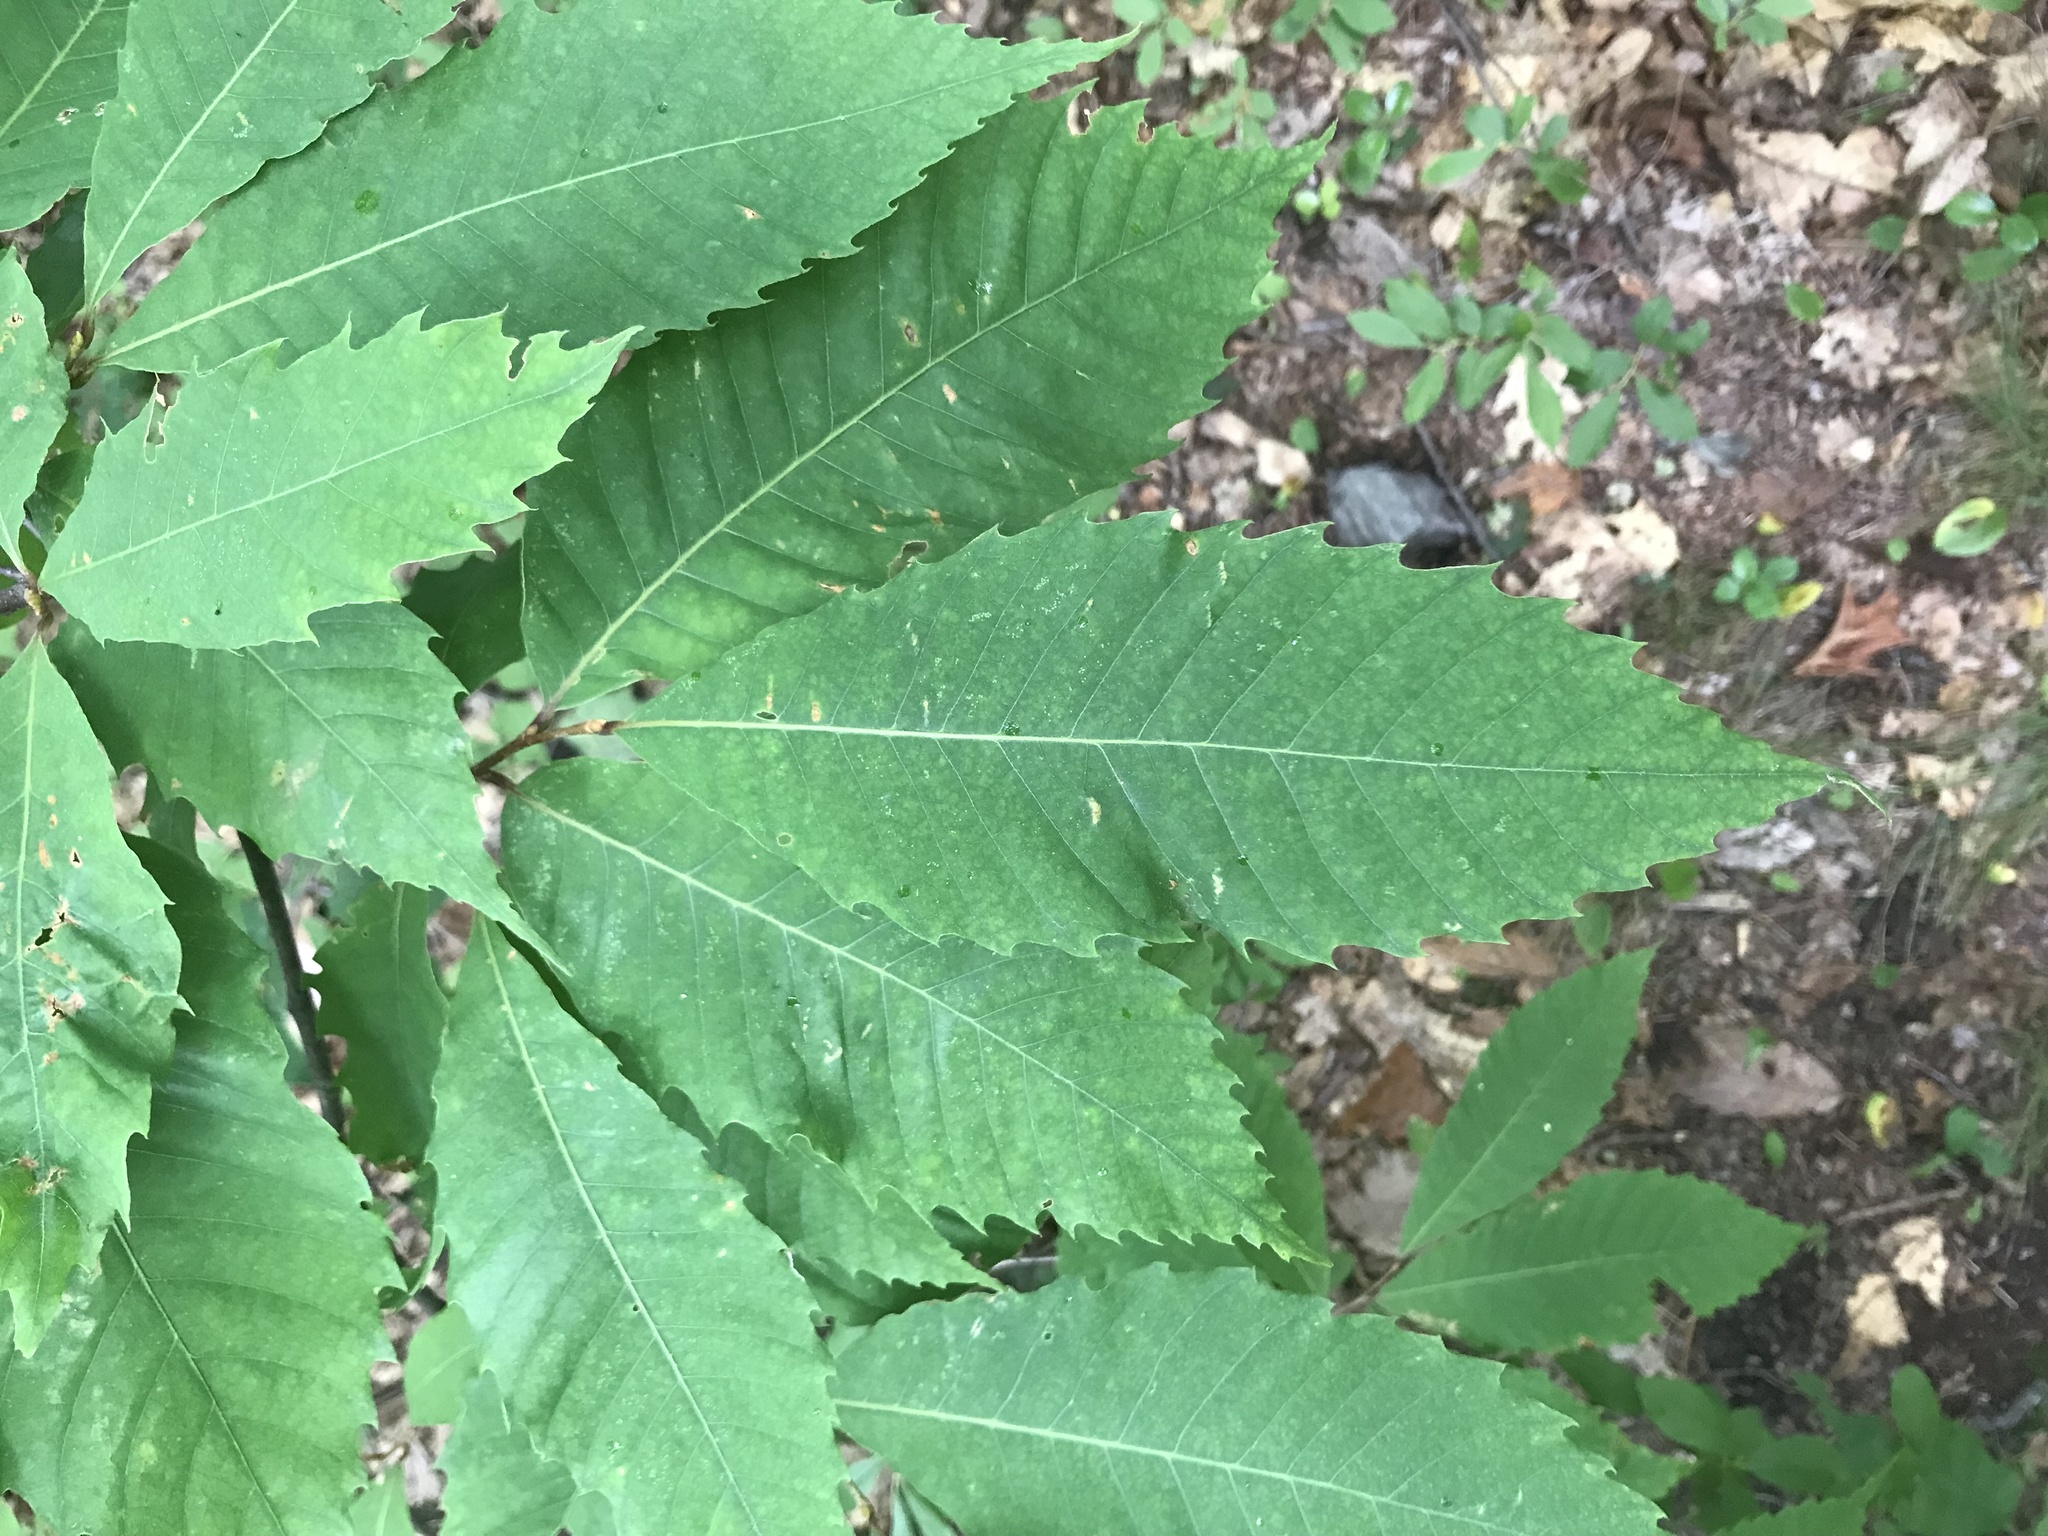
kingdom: Plantae
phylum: Tracheophyta
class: Magnoliopsida
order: Fagales
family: Fagaceae
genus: Castanea
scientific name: Castanea dentata
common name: American chestnut
